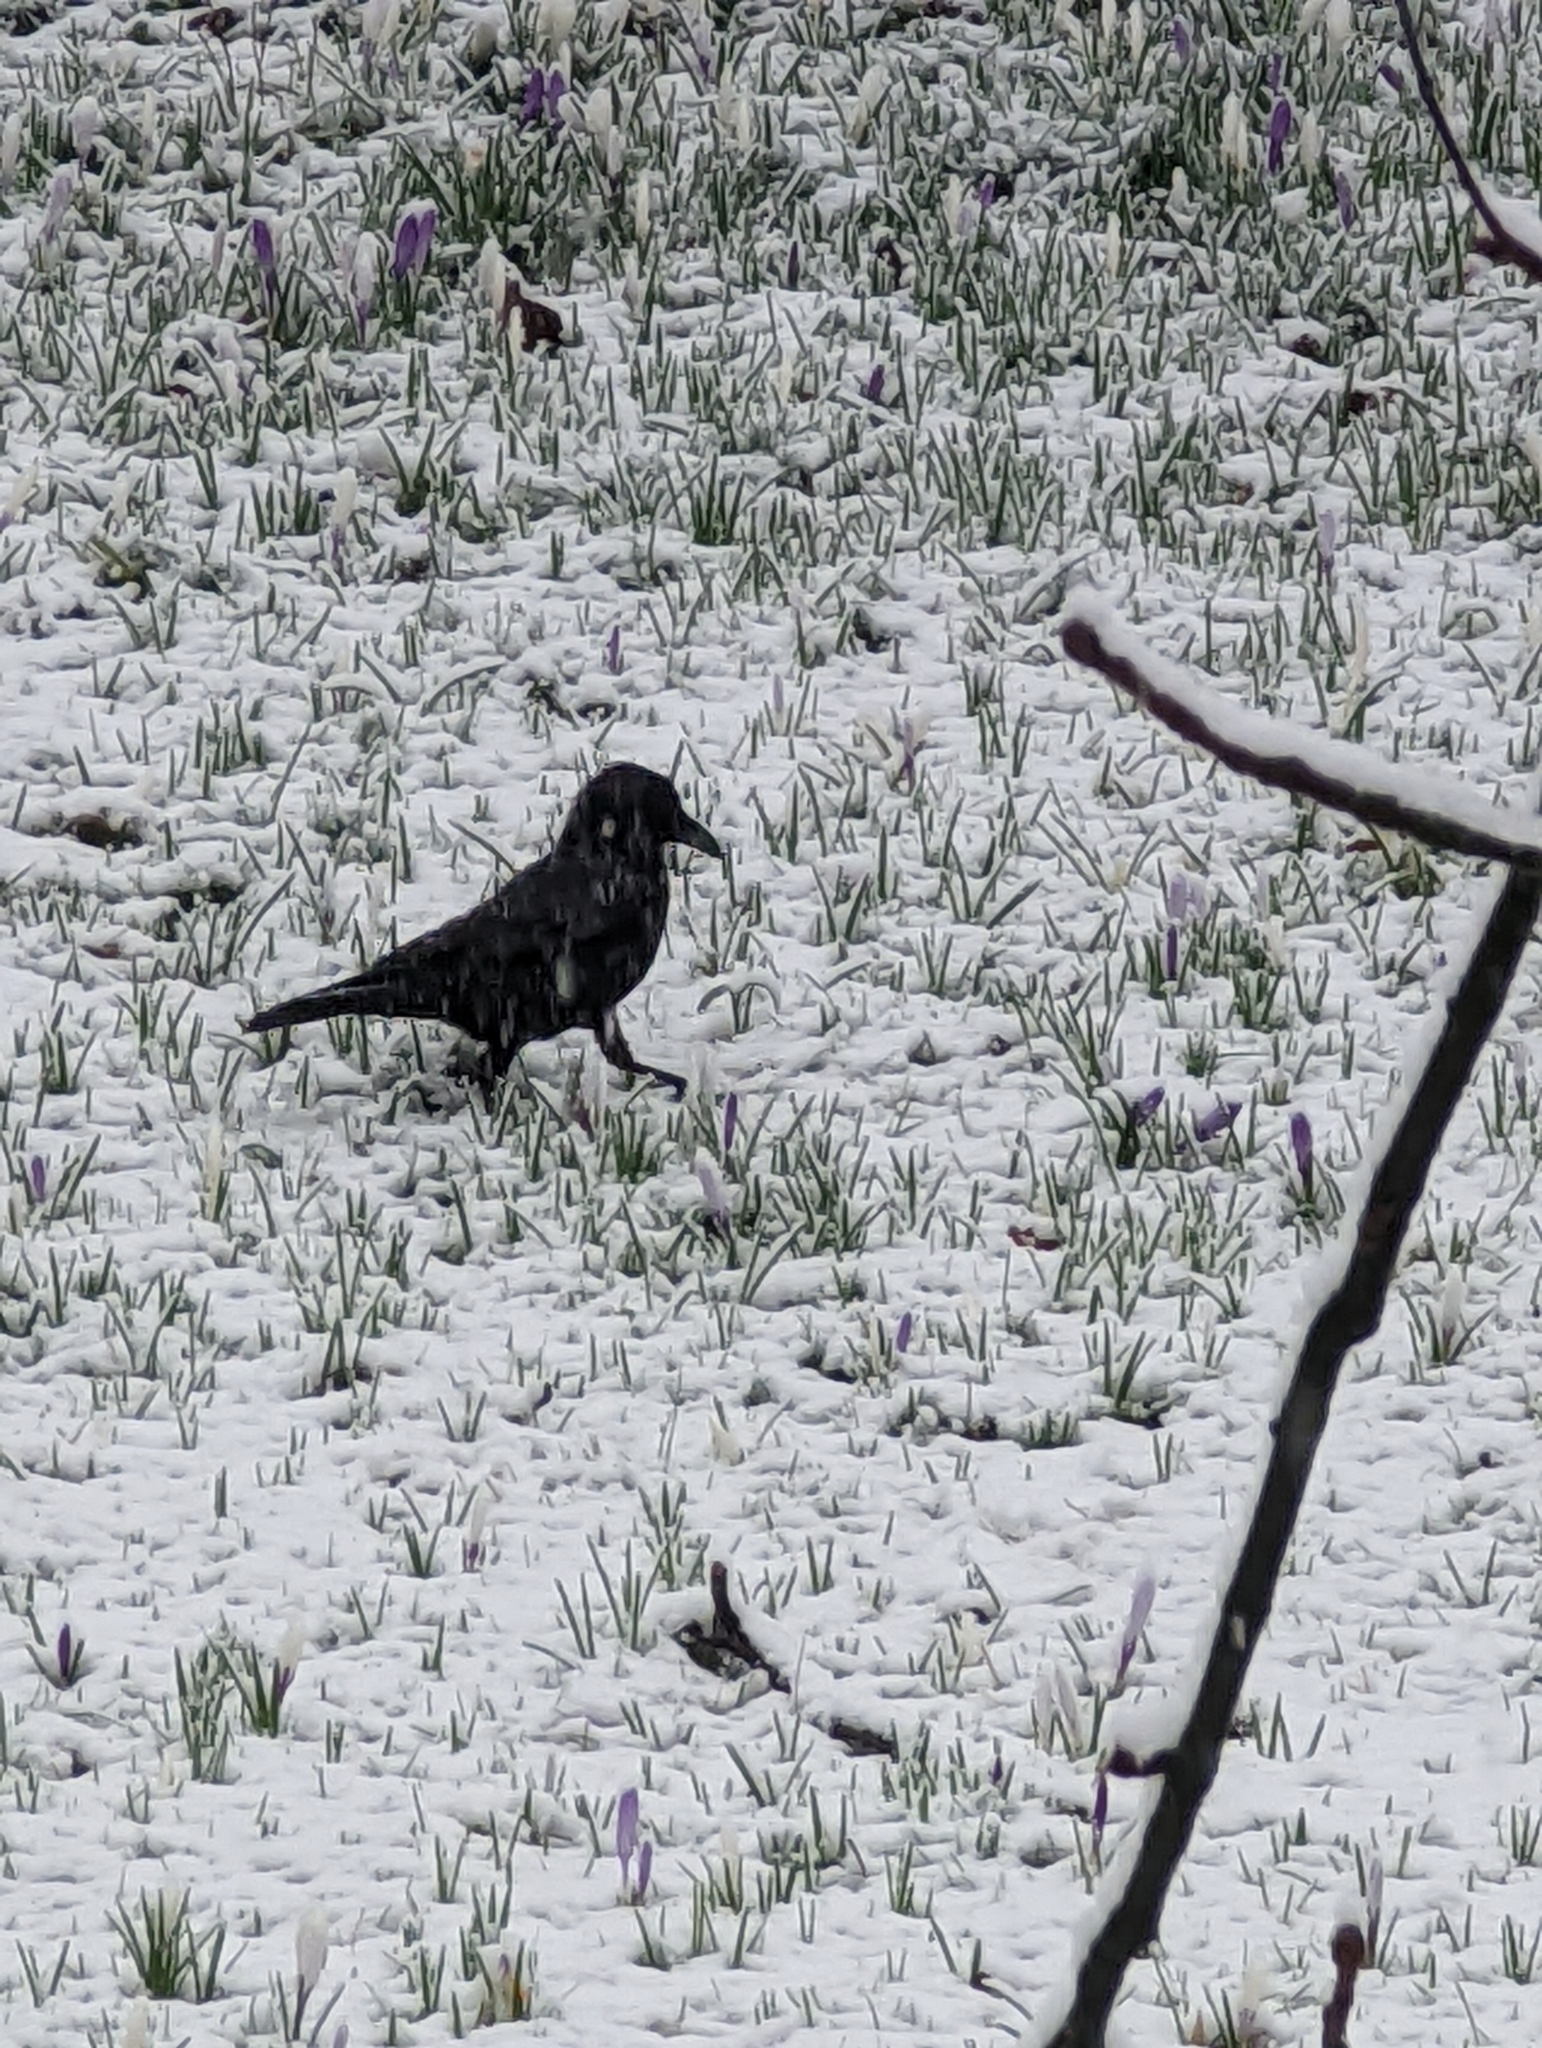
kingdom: Animalia
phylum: Chordata
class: Aves
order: Passeriformes
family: Corvidae
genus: Corvus
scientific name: Corvus corone
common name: Carrion crow
